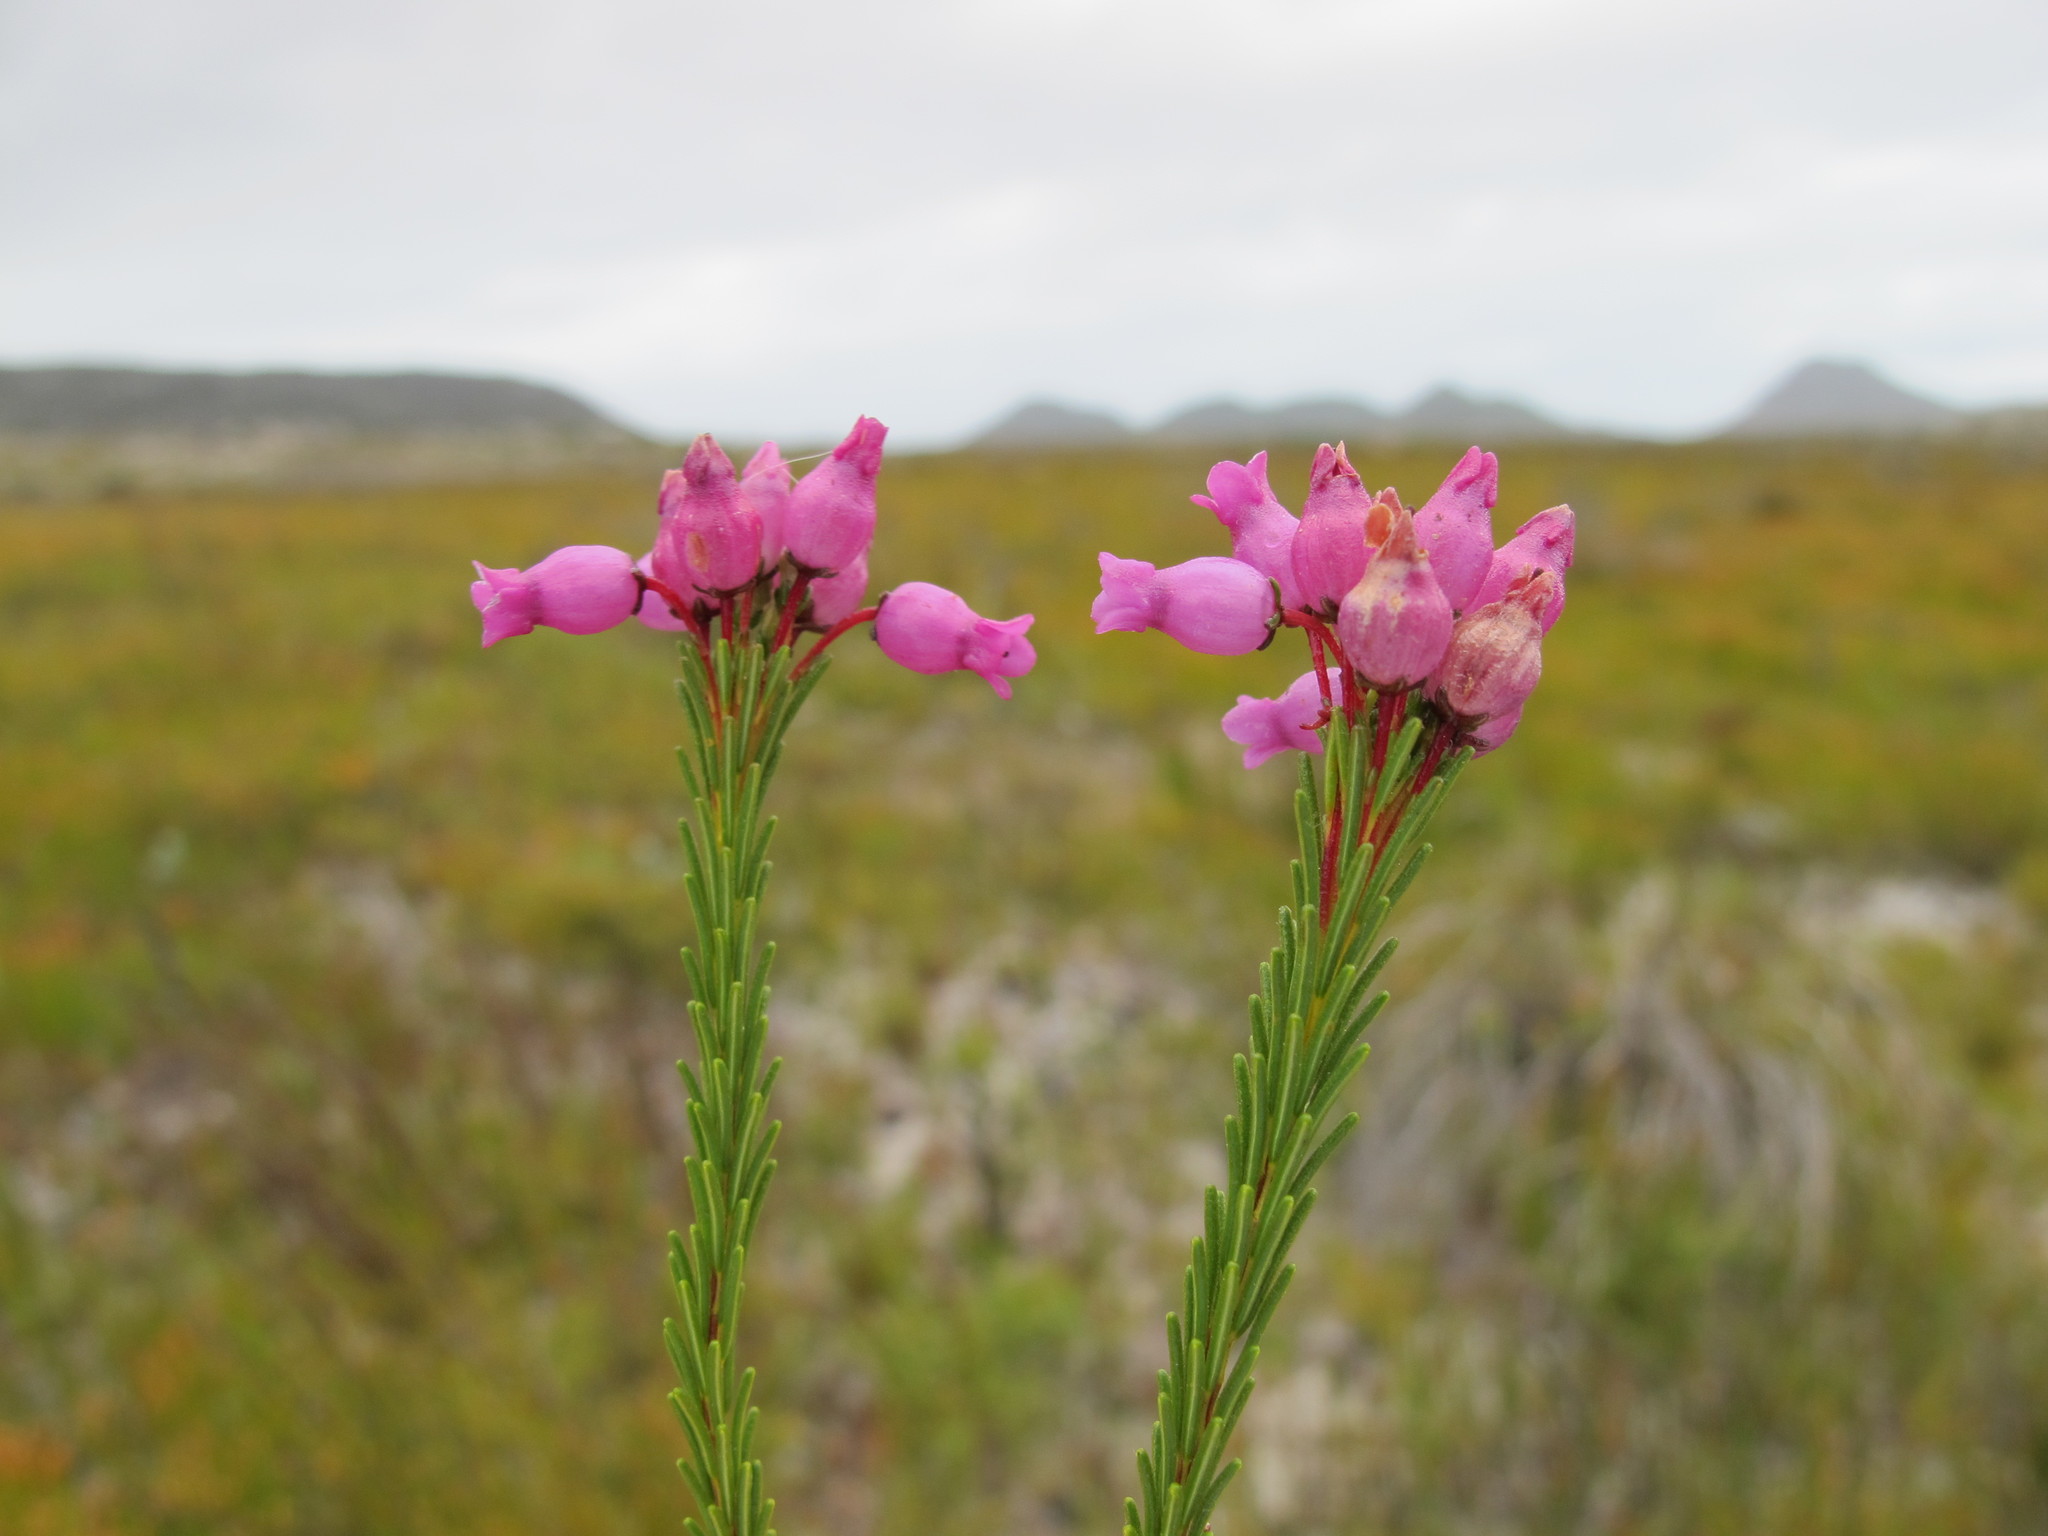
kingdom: Plantae
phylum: Tracheophyta
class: Magnoliopsida
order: Ericales
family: Ericaceae
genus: Erica
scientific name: Erica obliqua
